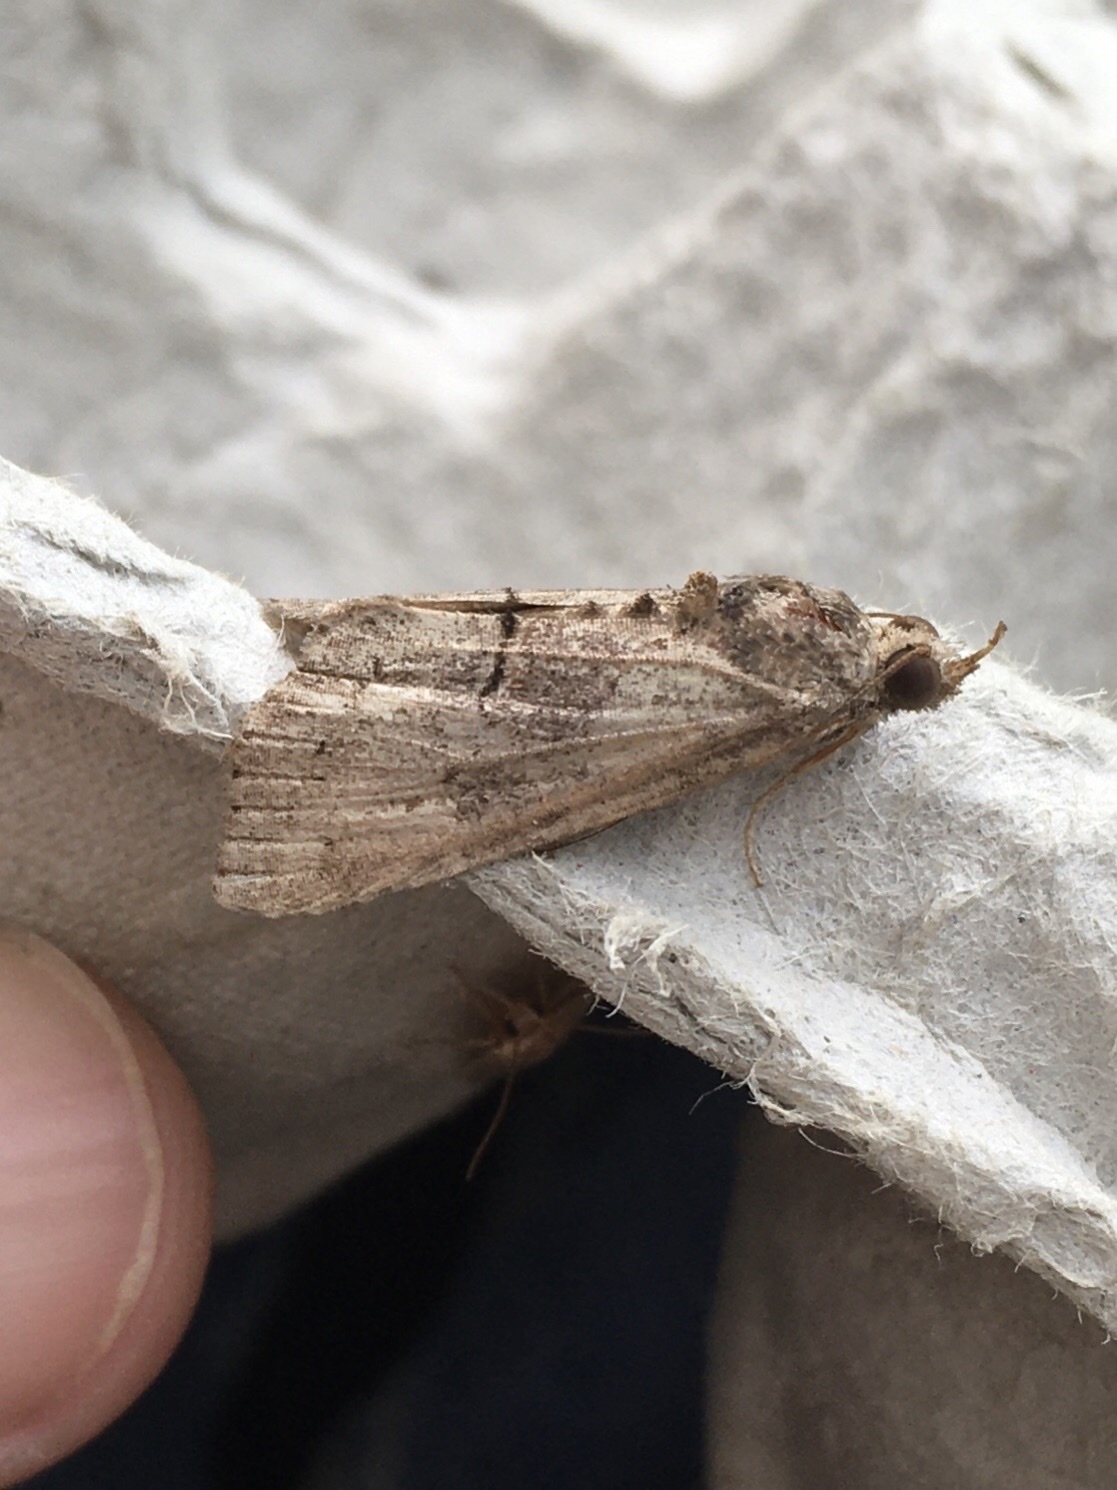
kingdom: Animalia
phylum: Arthropoda
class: Insecta
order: Lepidoptera
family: Erebidae
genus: Hypena
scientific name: Hypena scabra
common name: Green cloverworm
